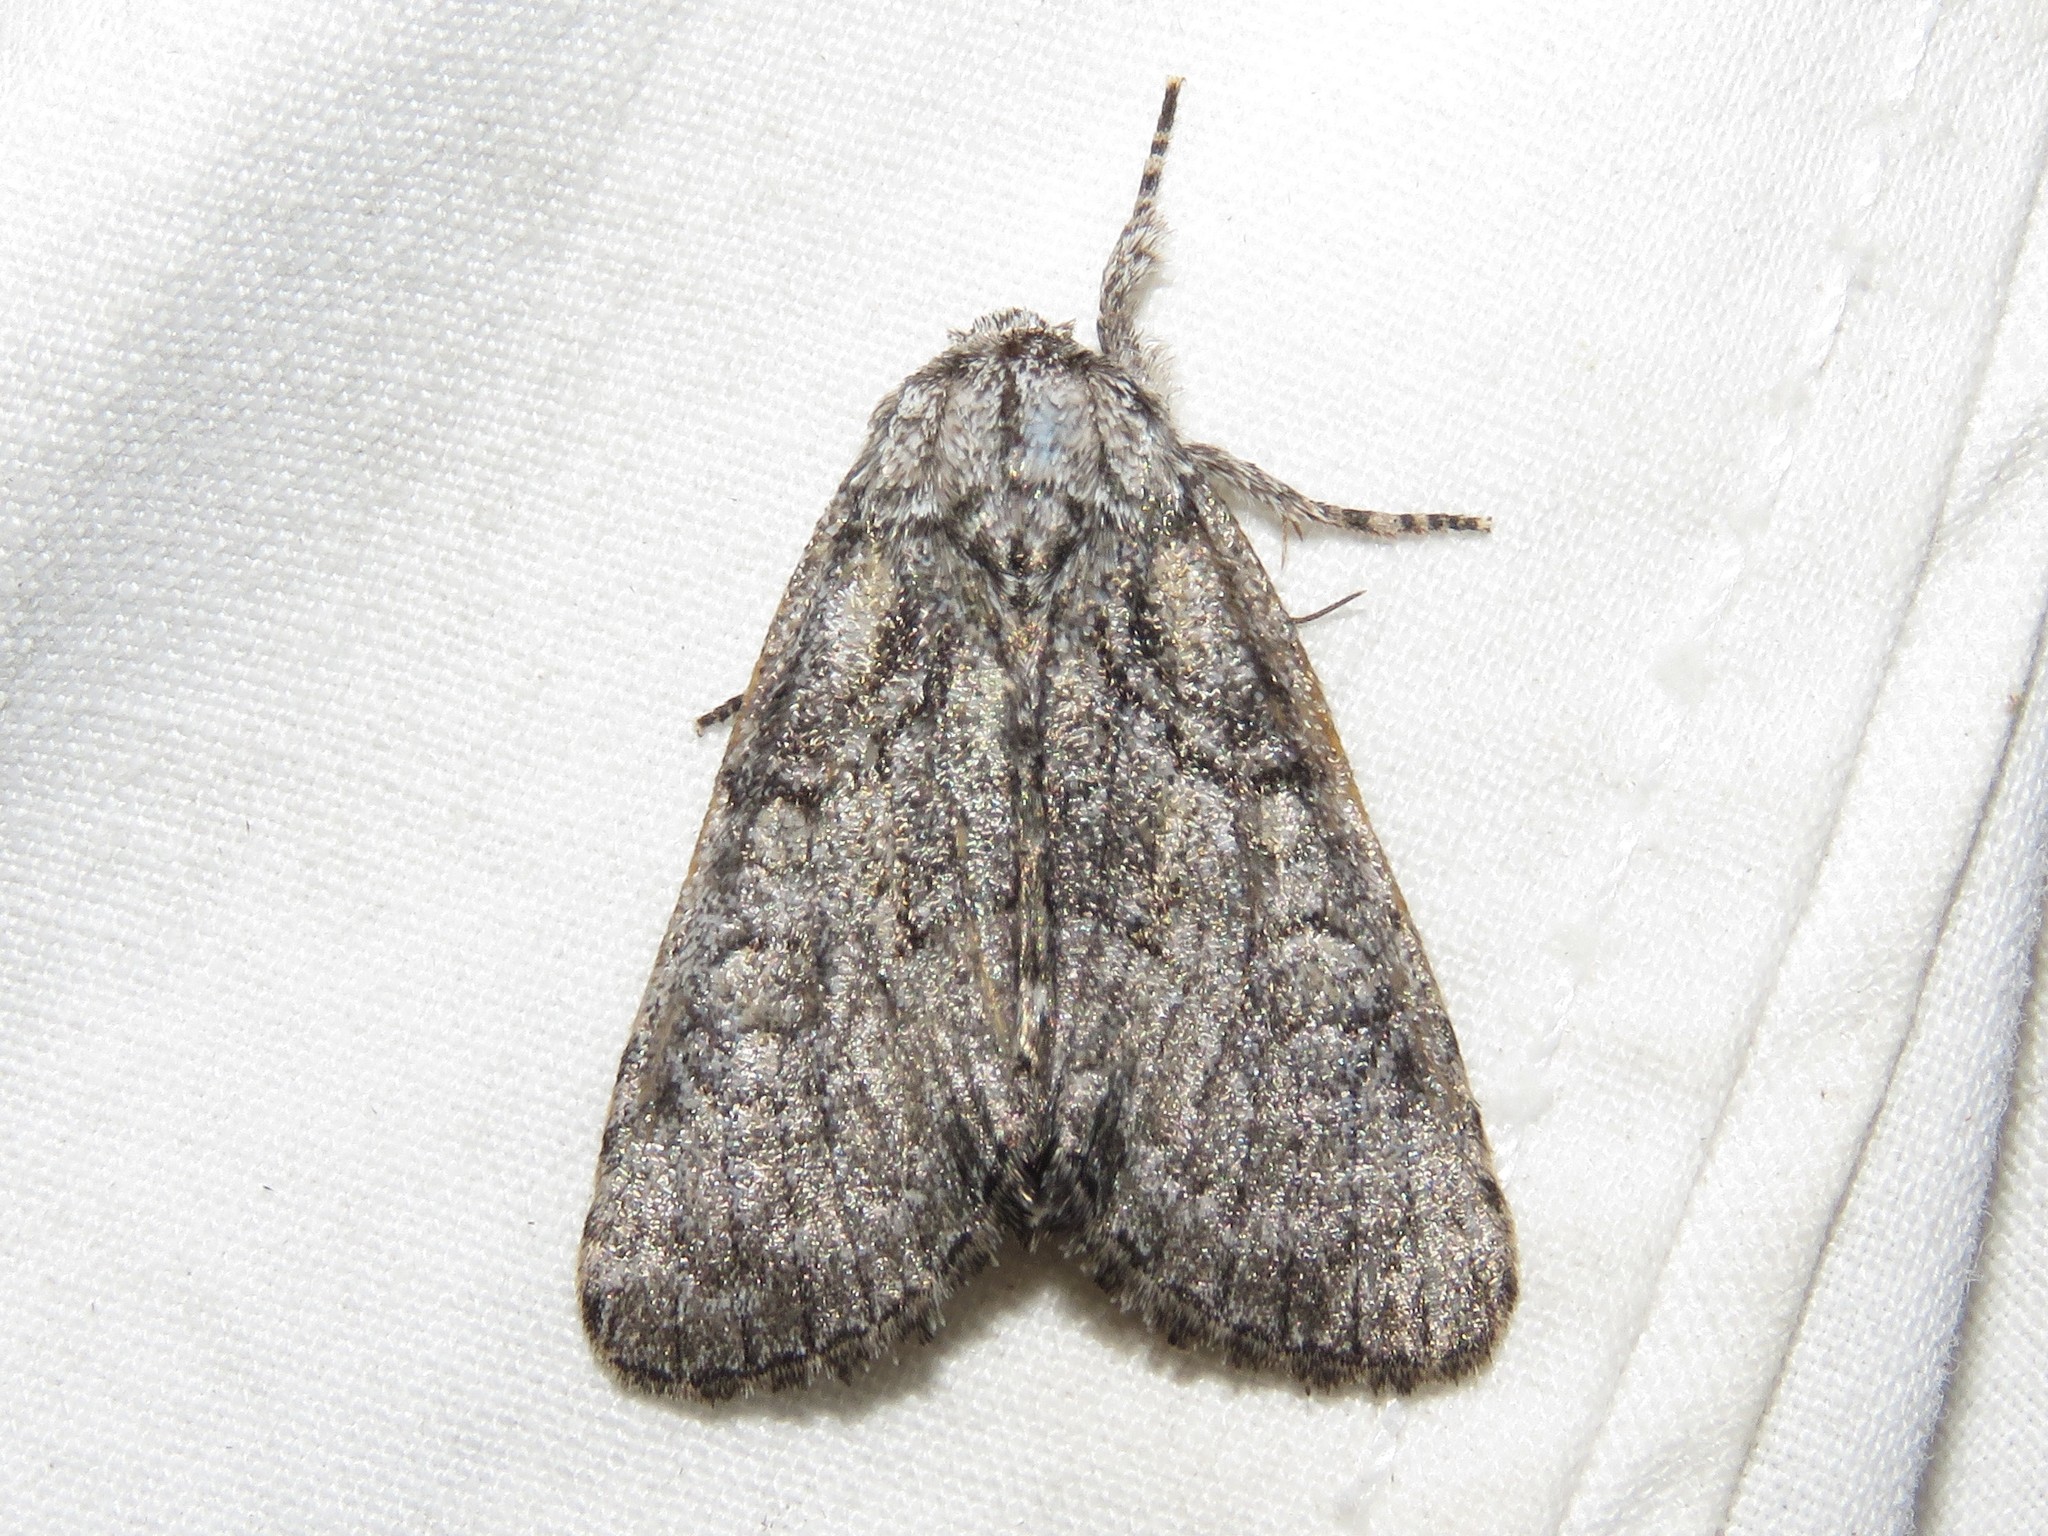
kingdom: Animalia
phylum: Arthropoda
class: Insecta
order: Lepidoptera
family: Noctuidae
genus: Raphia
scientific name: Raphia frater
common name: Brother
